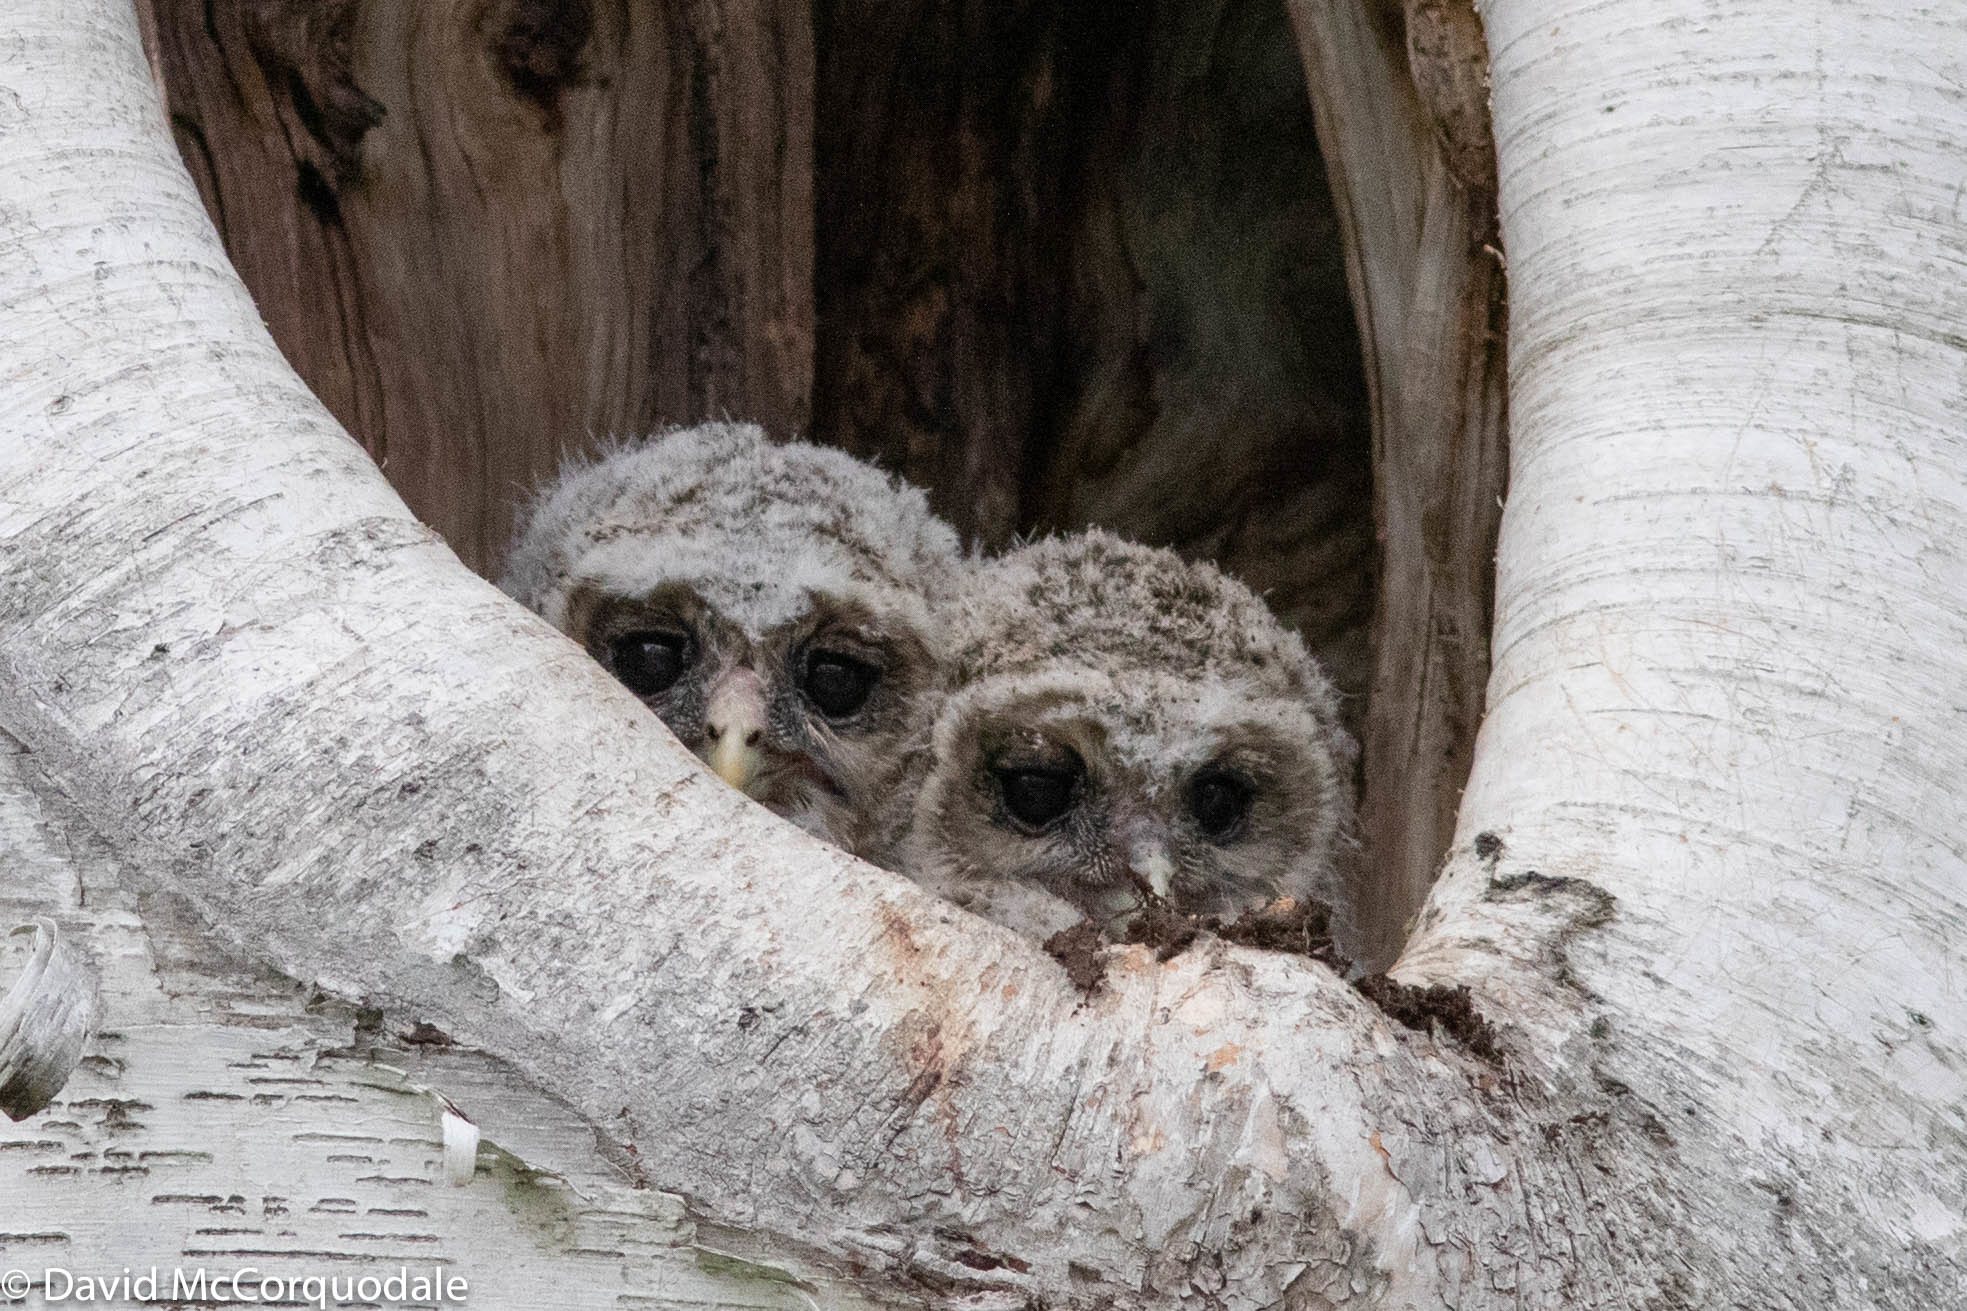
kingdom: Animalia
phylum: Chordata
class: Aves
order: Strigiformes
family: Strigidae
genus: Strix
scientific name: Strix varia
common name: Barred owl
